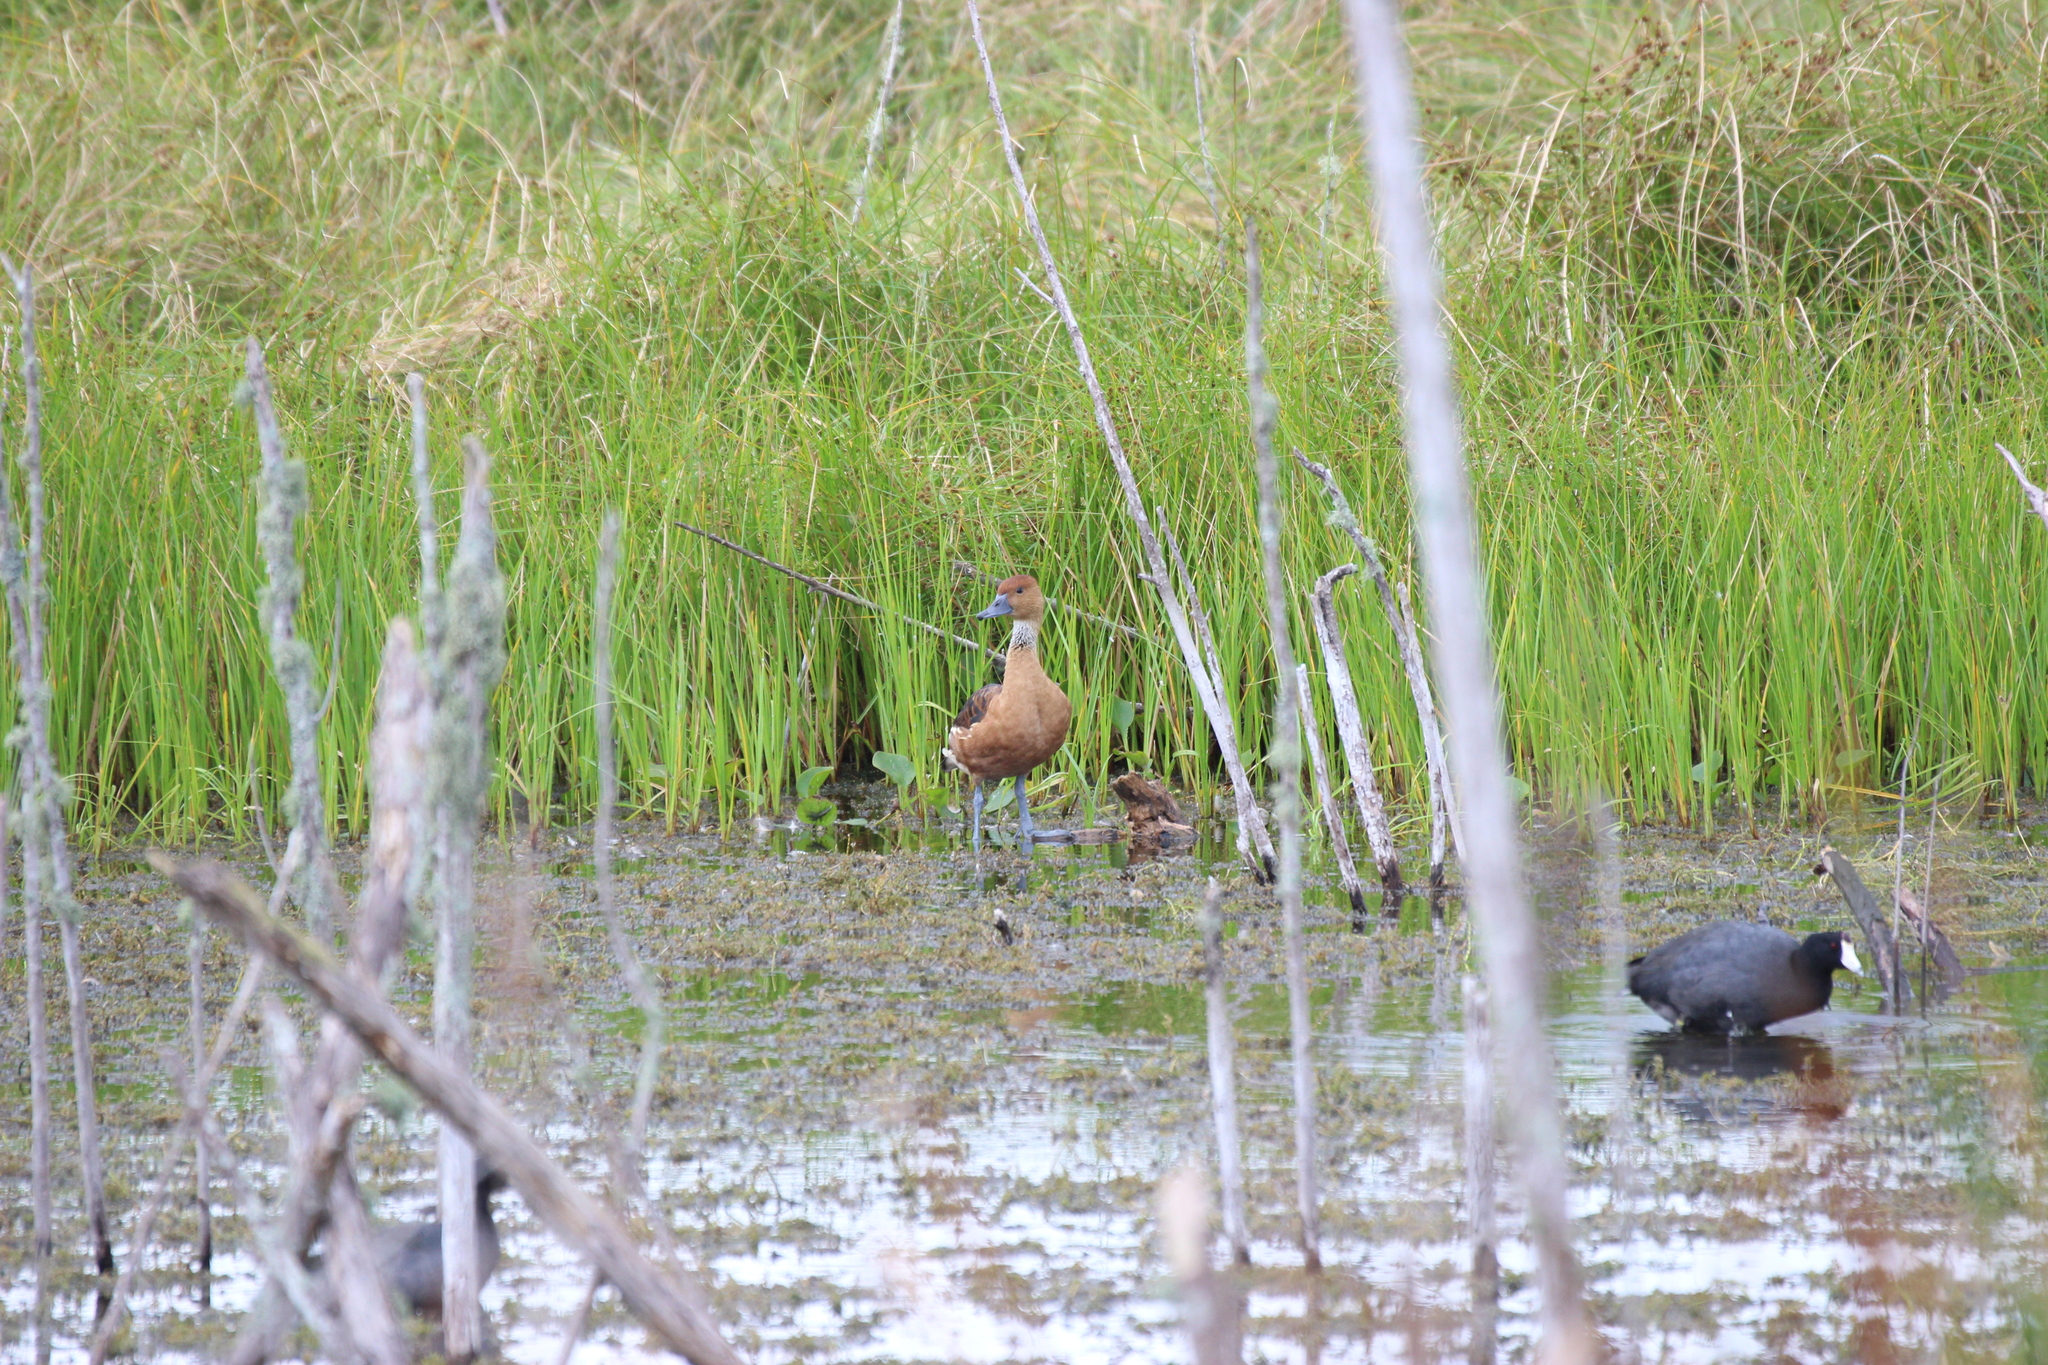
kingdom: Animalia
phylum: Chordata
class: Aves
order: Anseriformes
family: Anatidae
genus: Dendrocygna
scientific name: Dendrocygna bicolor
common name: Fulvous whistling duck
